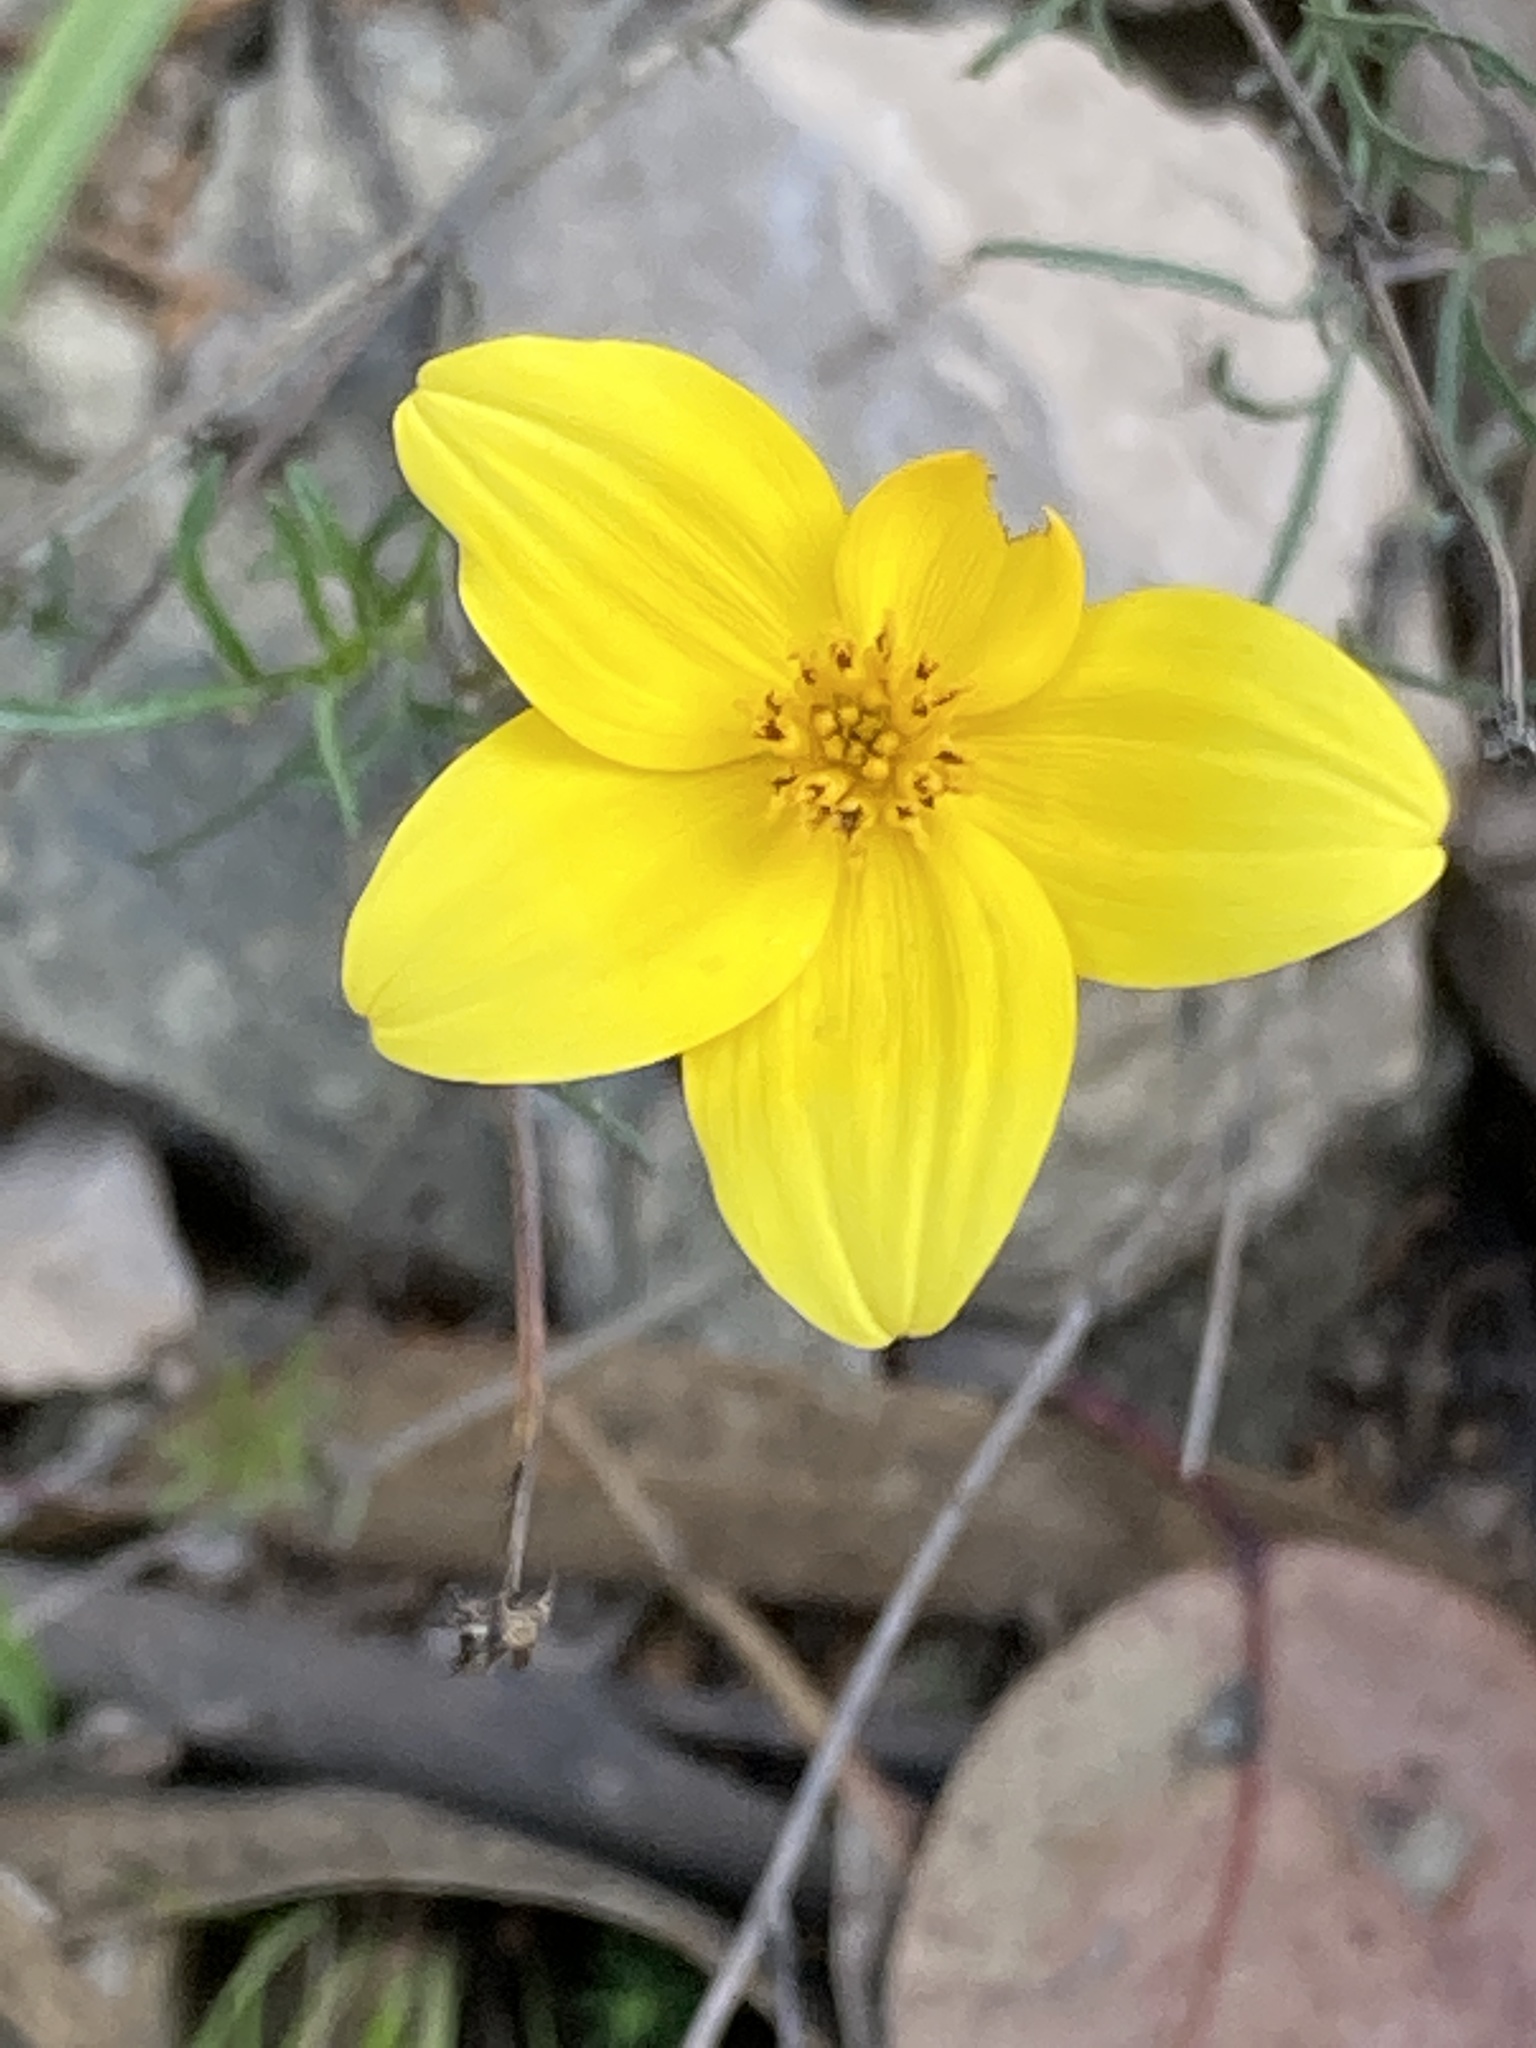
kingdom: Plantae
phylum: Tracheophyta
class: Magnoliopsida
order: Asterales
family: Asteraceae
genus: Bidens
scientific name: Bidens triplinervia
